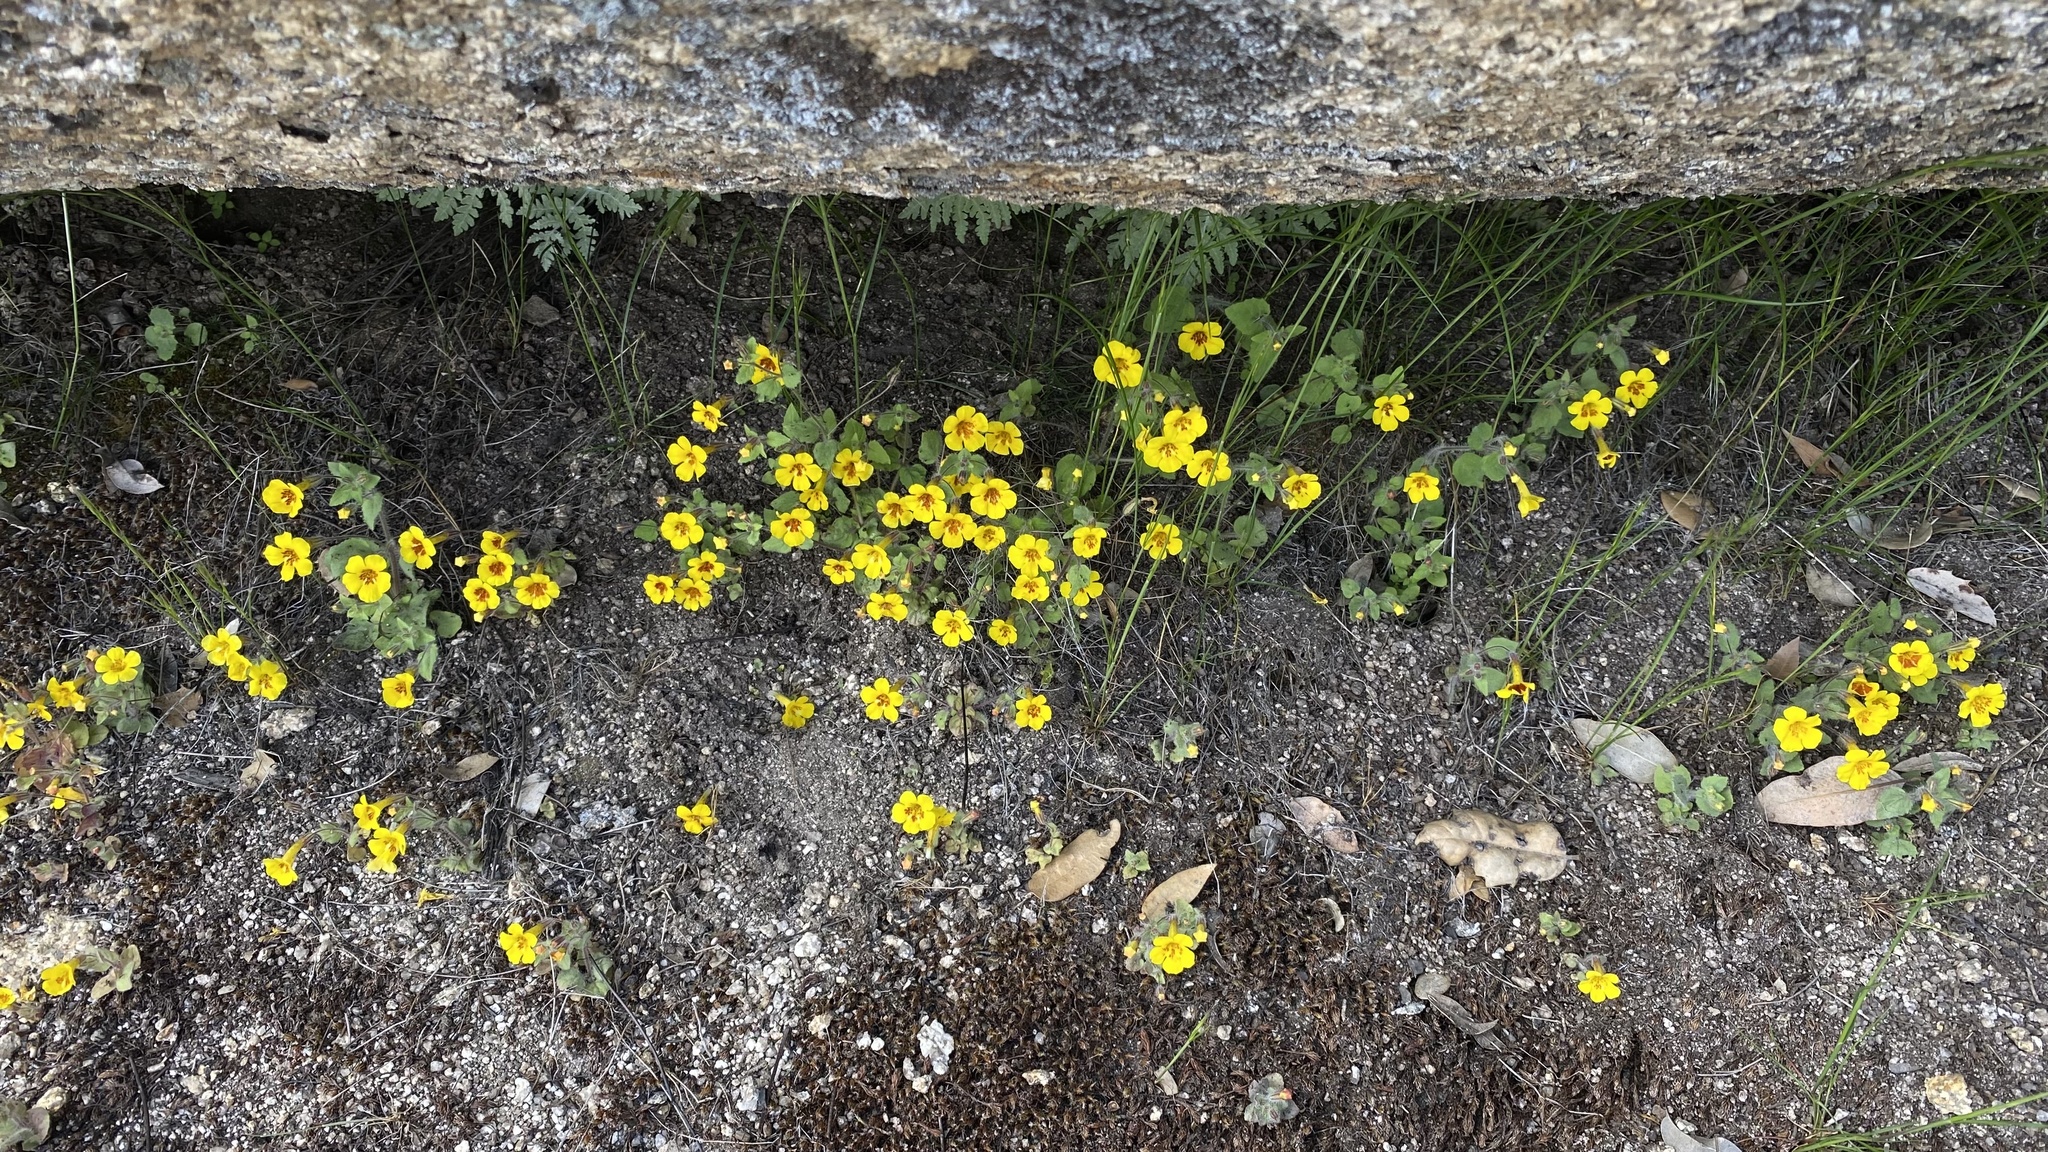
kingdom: Plantae
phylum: Tracheophyta
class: Magnoliopsida
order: Lamiales
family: Phrymaceae
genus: Erythranthe
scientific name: Erythranthe geniculata
